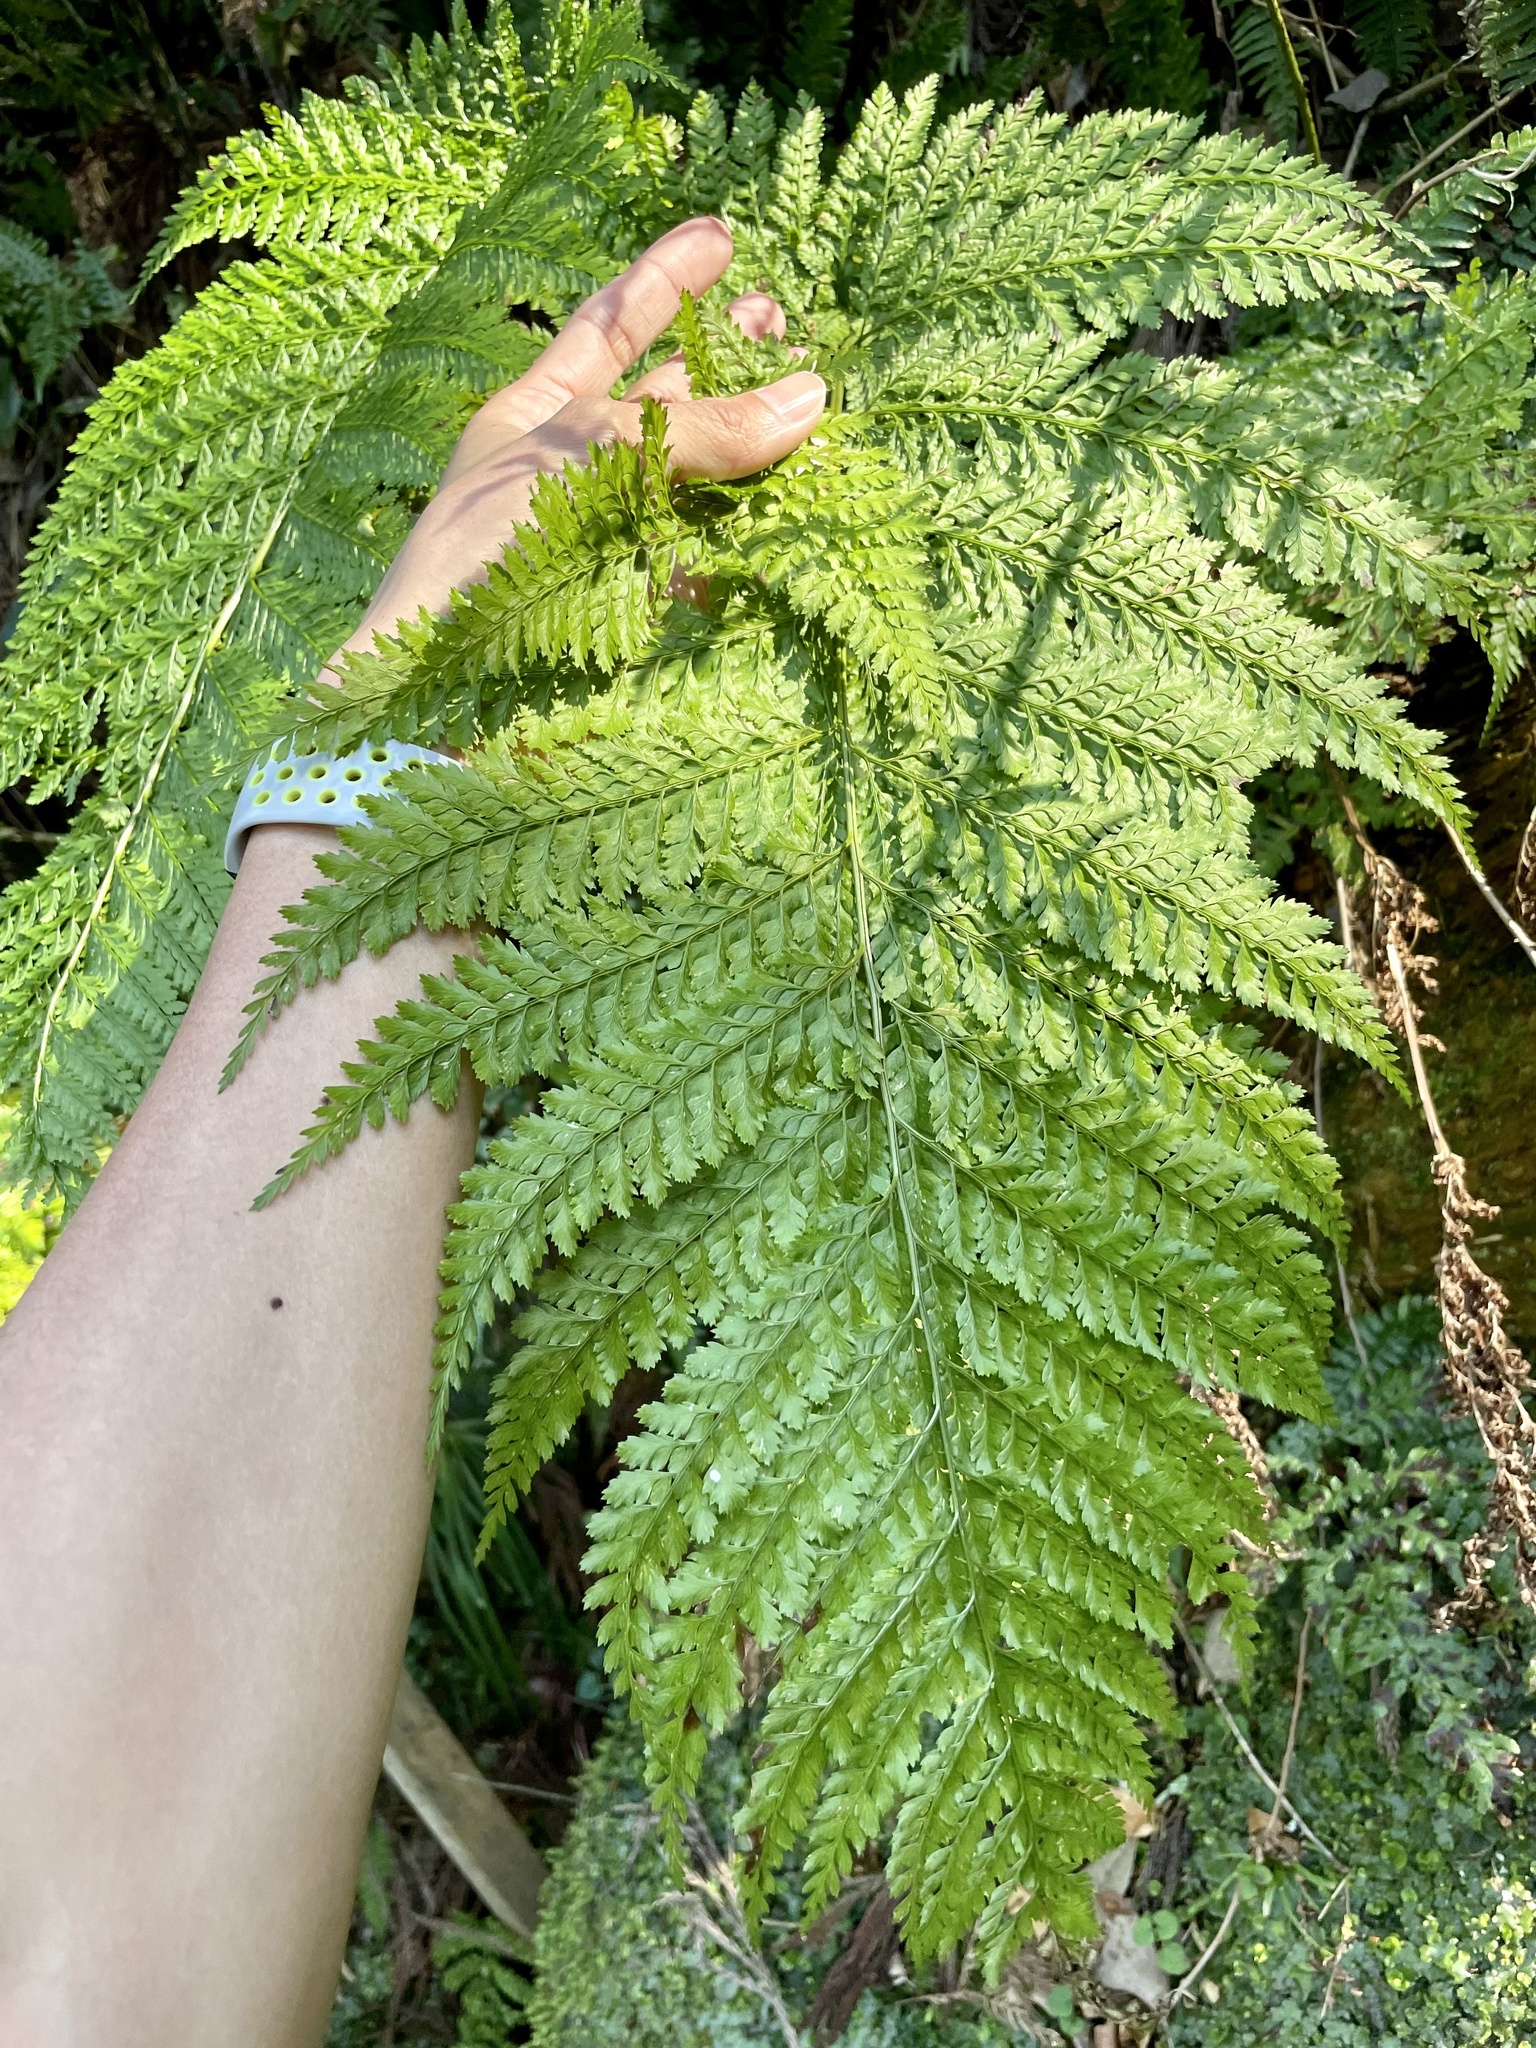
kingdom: Plantae
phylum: Tracheophyta
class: Polypodiopsida
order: Polypodiales
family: Dryopteridaceae
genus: Arachniodes
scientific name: Arachniodes standishii
